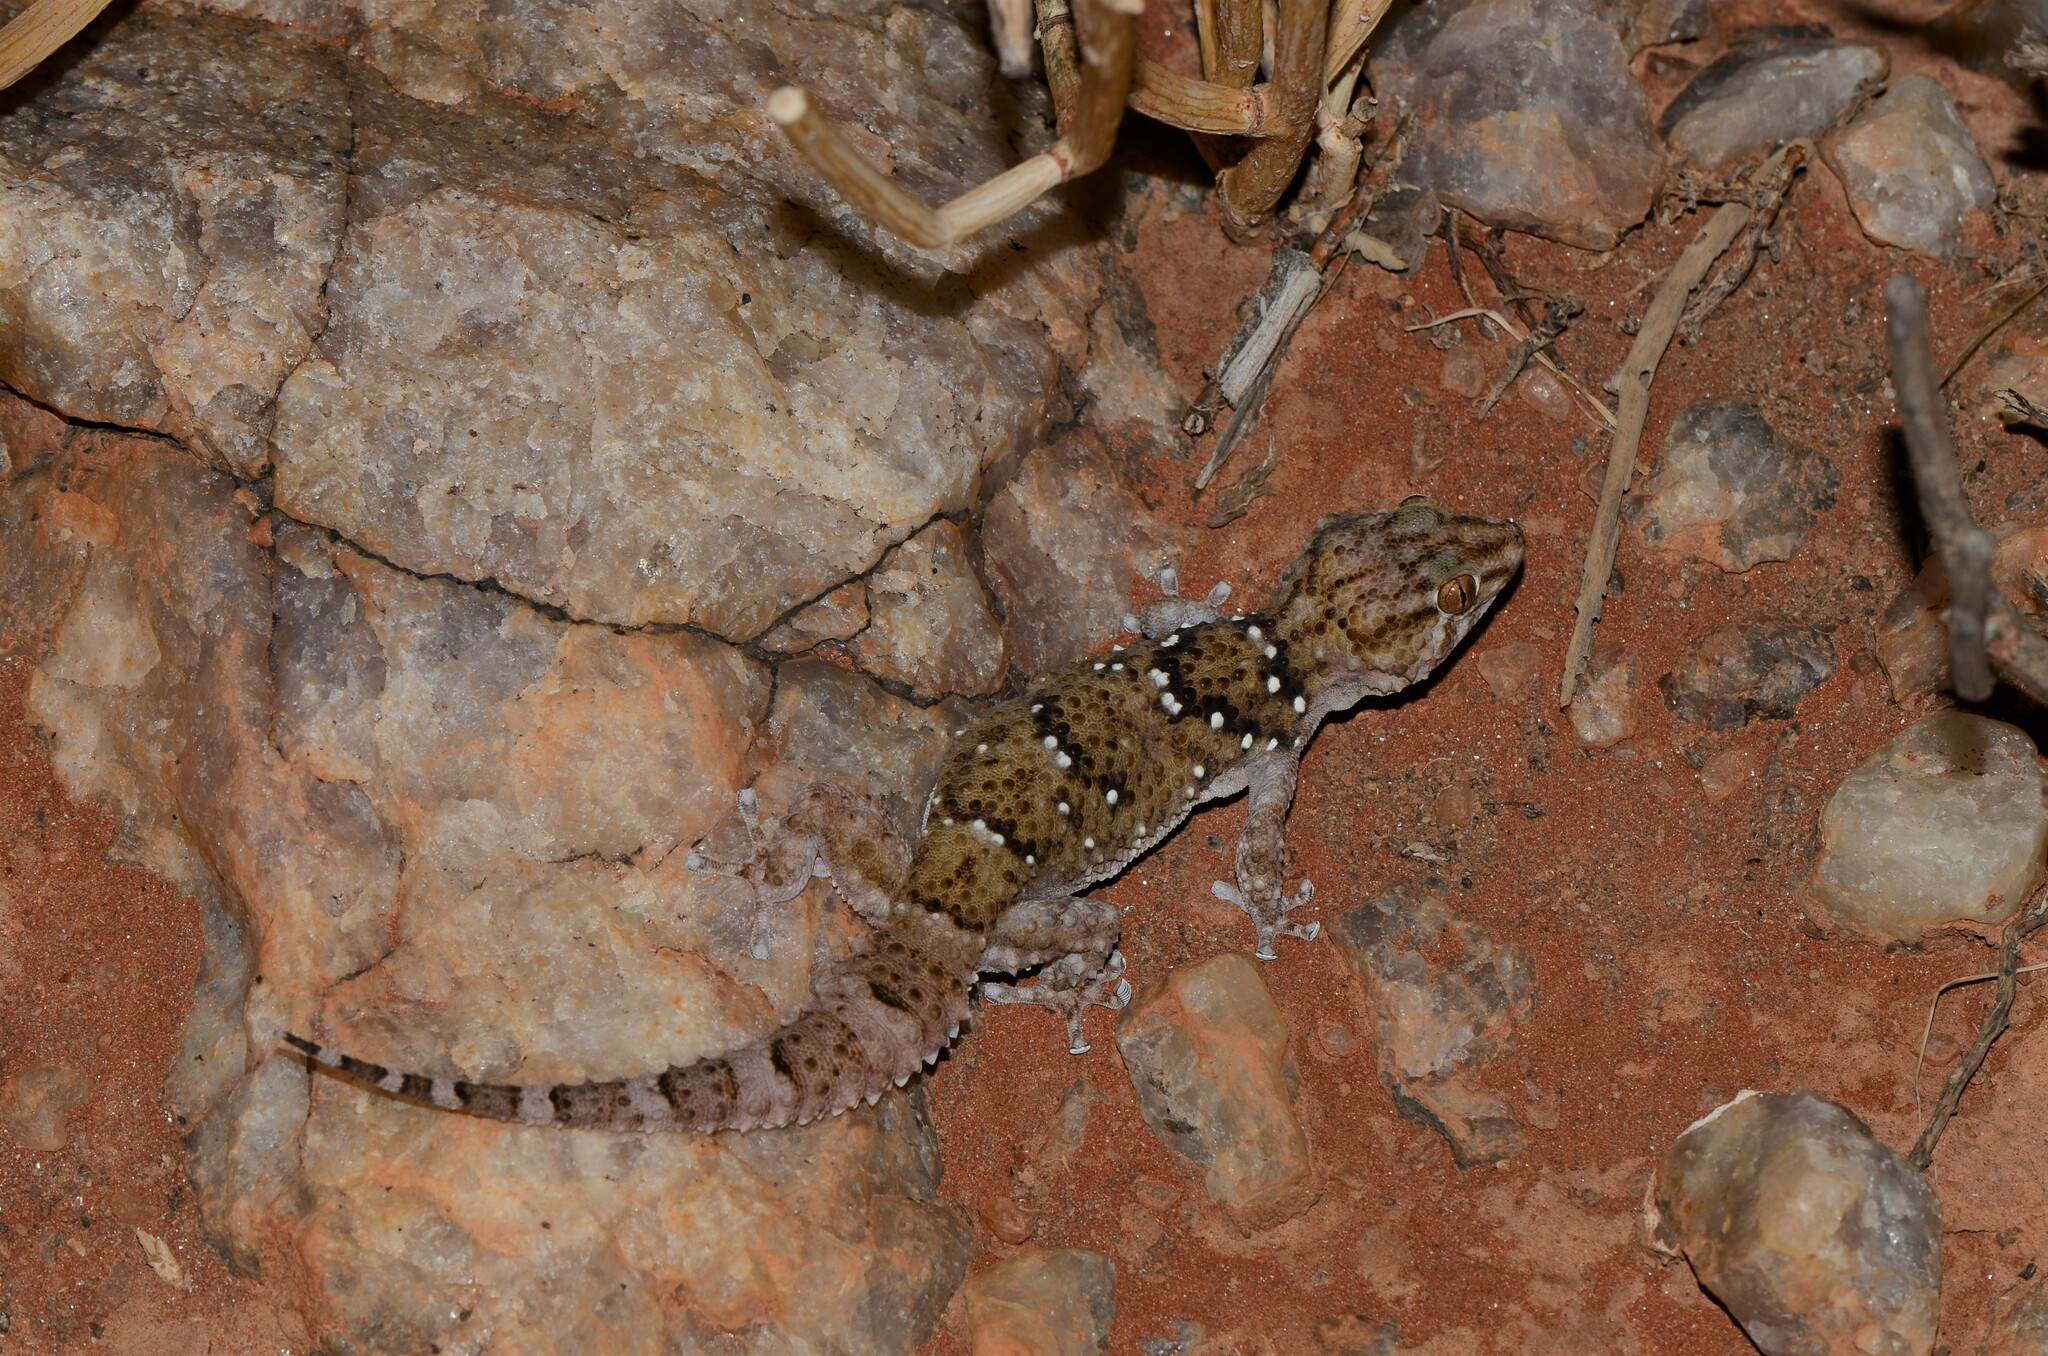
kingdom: Animalia
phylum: Chordata
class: Squamata
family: Gekkonidae
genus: Chondrodactylus
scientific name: Chondrodactylus laevigatus
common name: Fischer's thick-toed gecko
